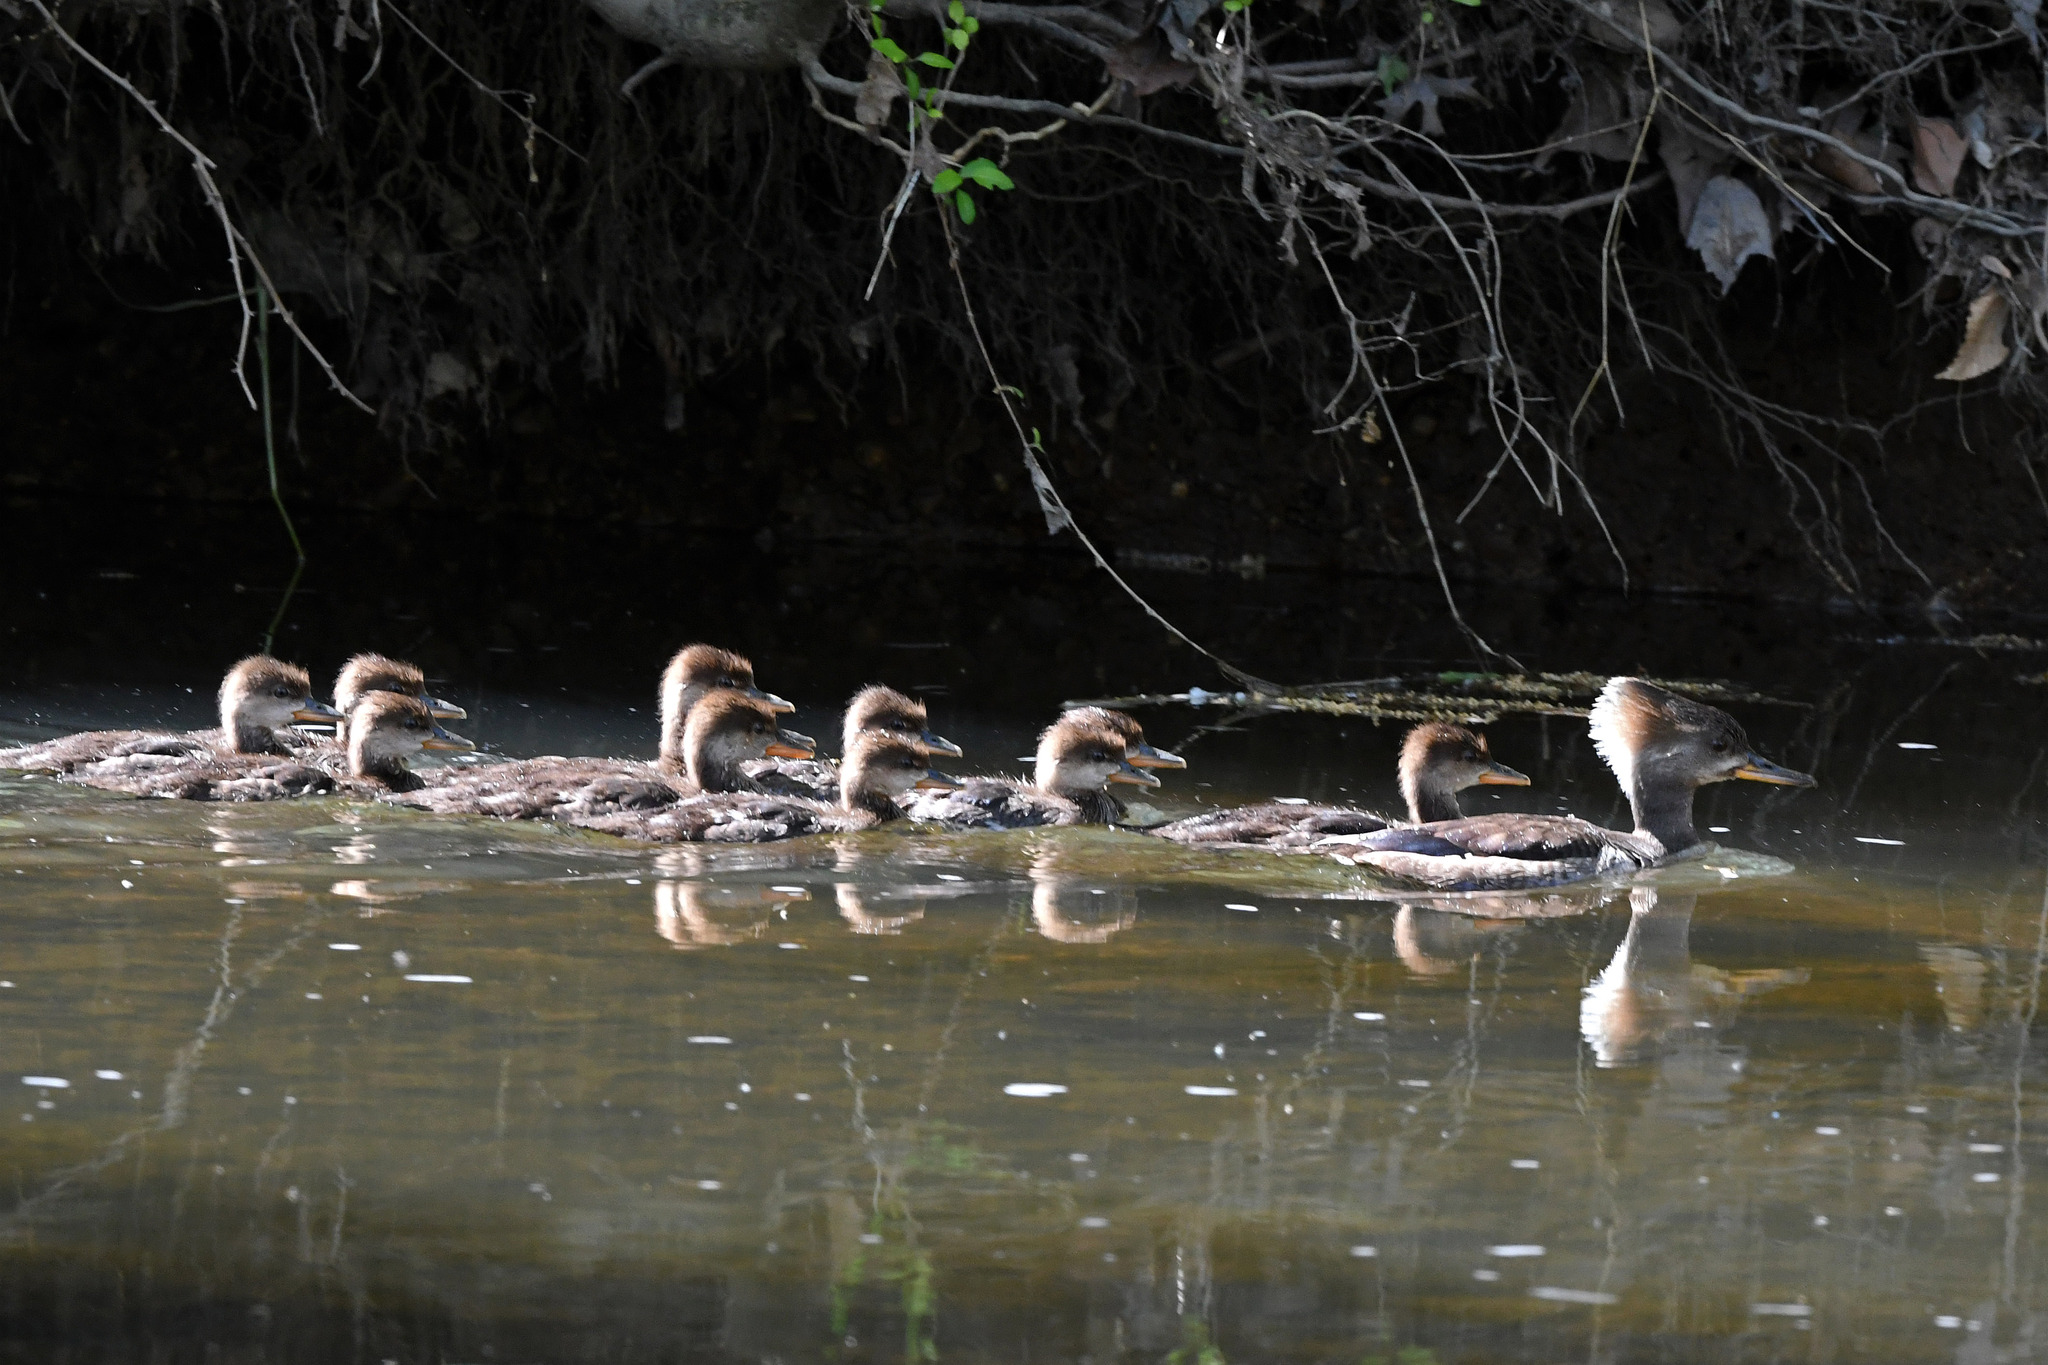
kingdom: Animalia
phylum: Chordata
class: Aves
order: Anseriformes
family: Anatidae
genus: Lophodytes
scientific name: Lophodytes cucullatus
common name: Hooded merganser
